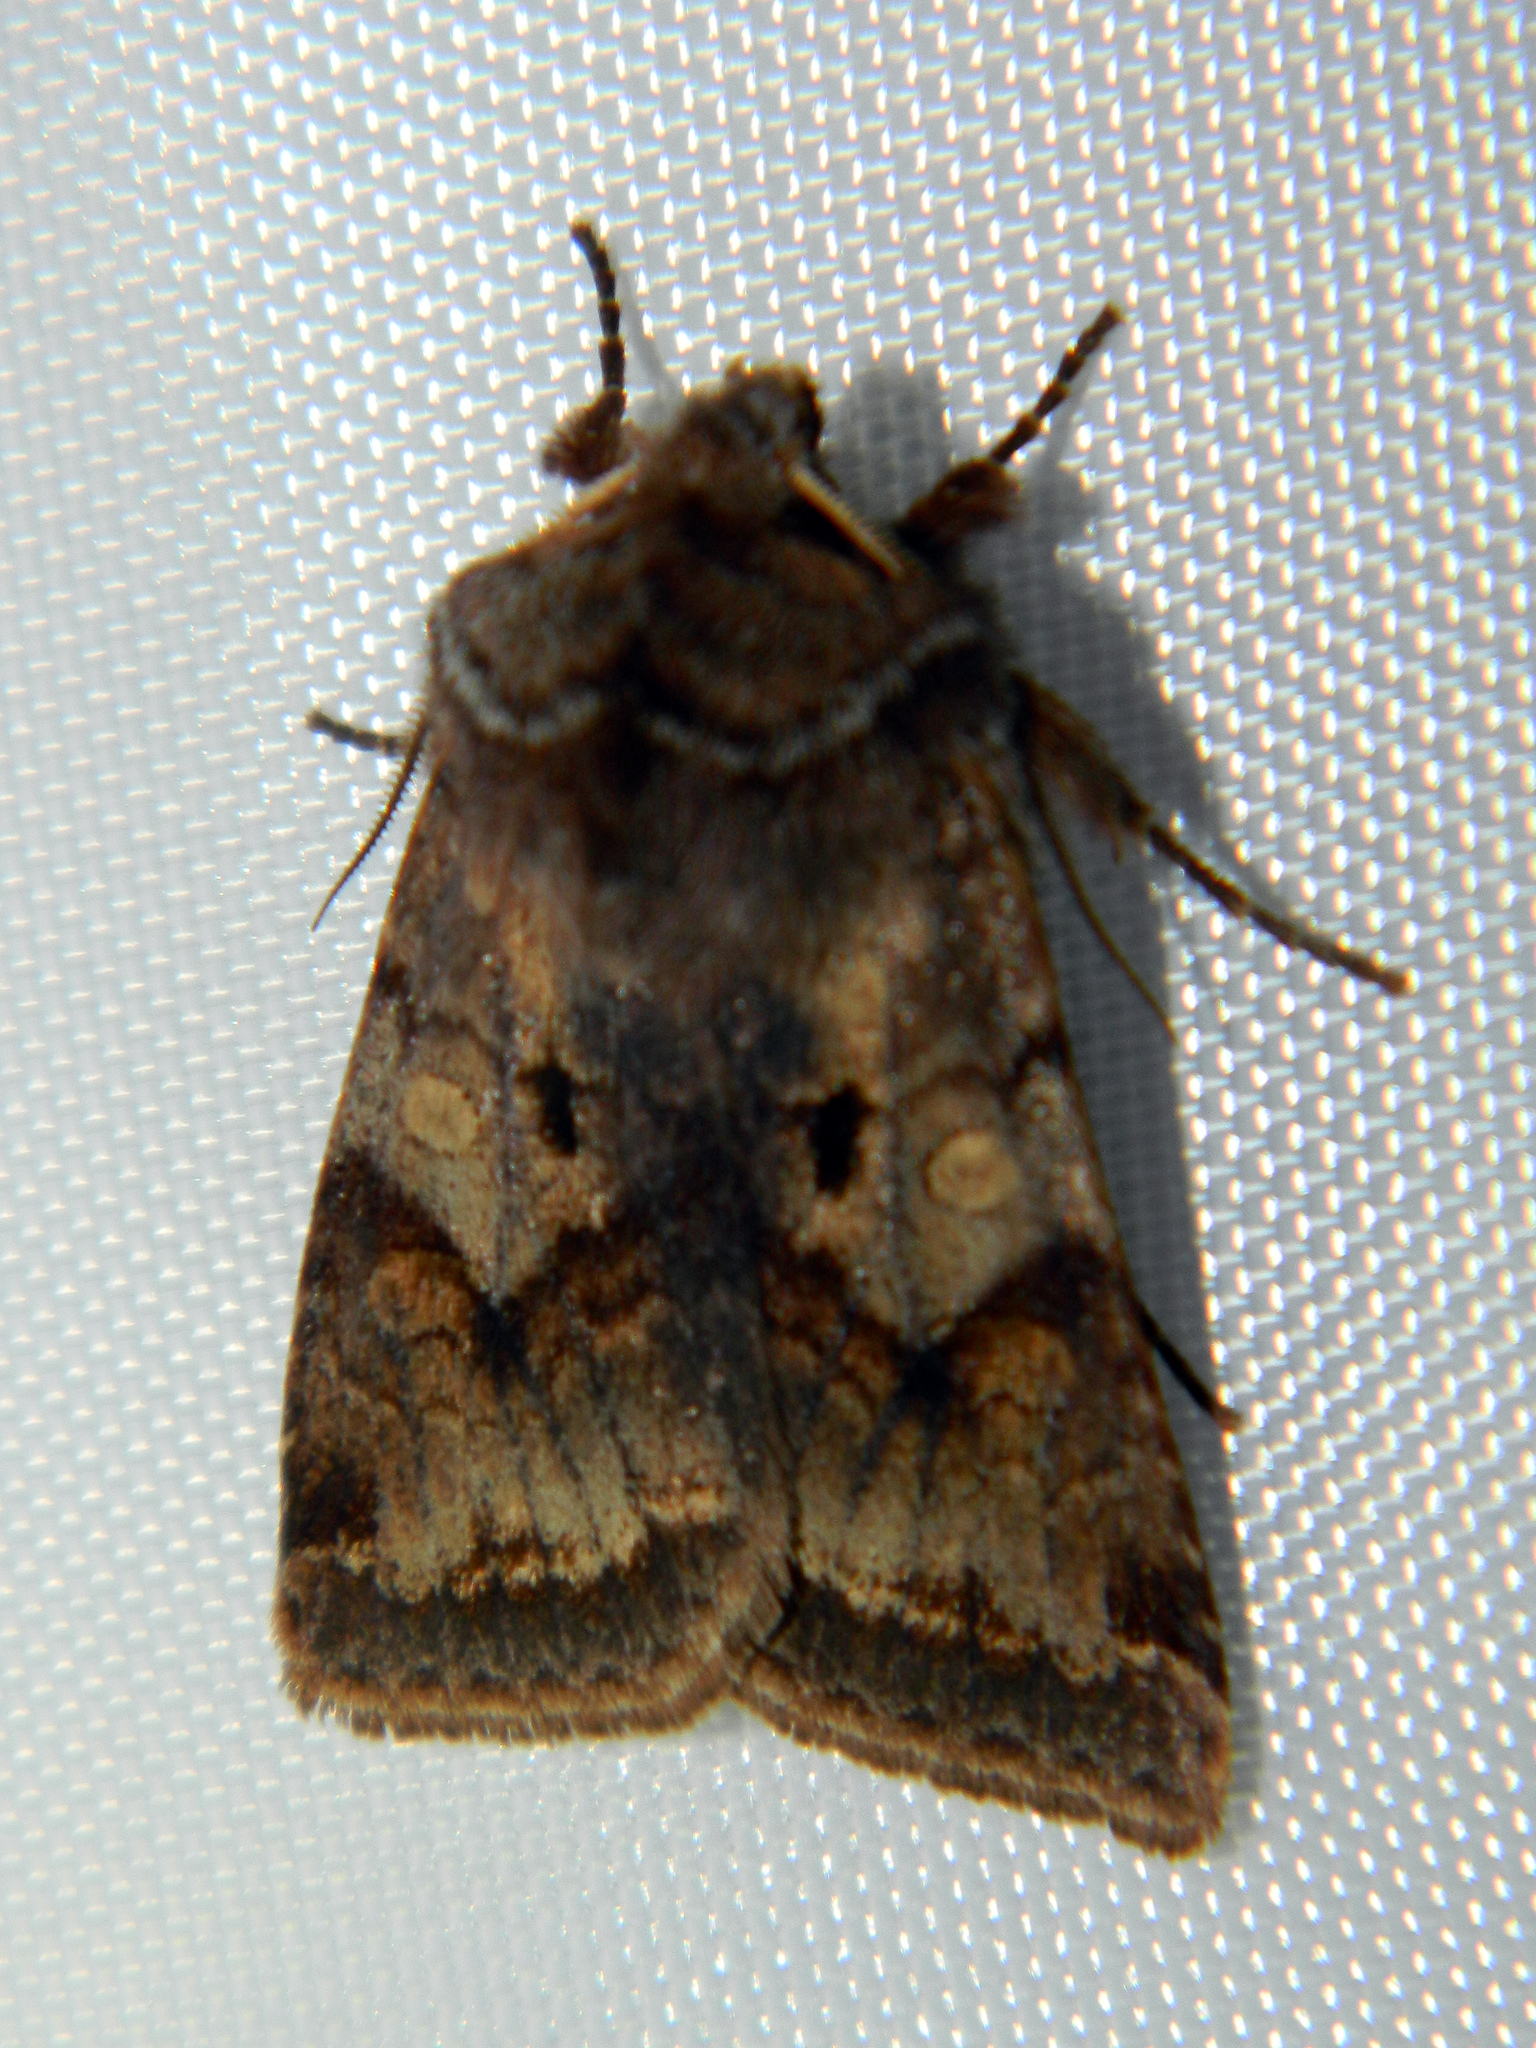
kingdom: Animalia
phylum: Arthropoda
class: Insecta
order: Lepidoptera
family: Noctuidae
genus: Cerastis
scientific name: Cerastis salicarum
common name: Willow dart
